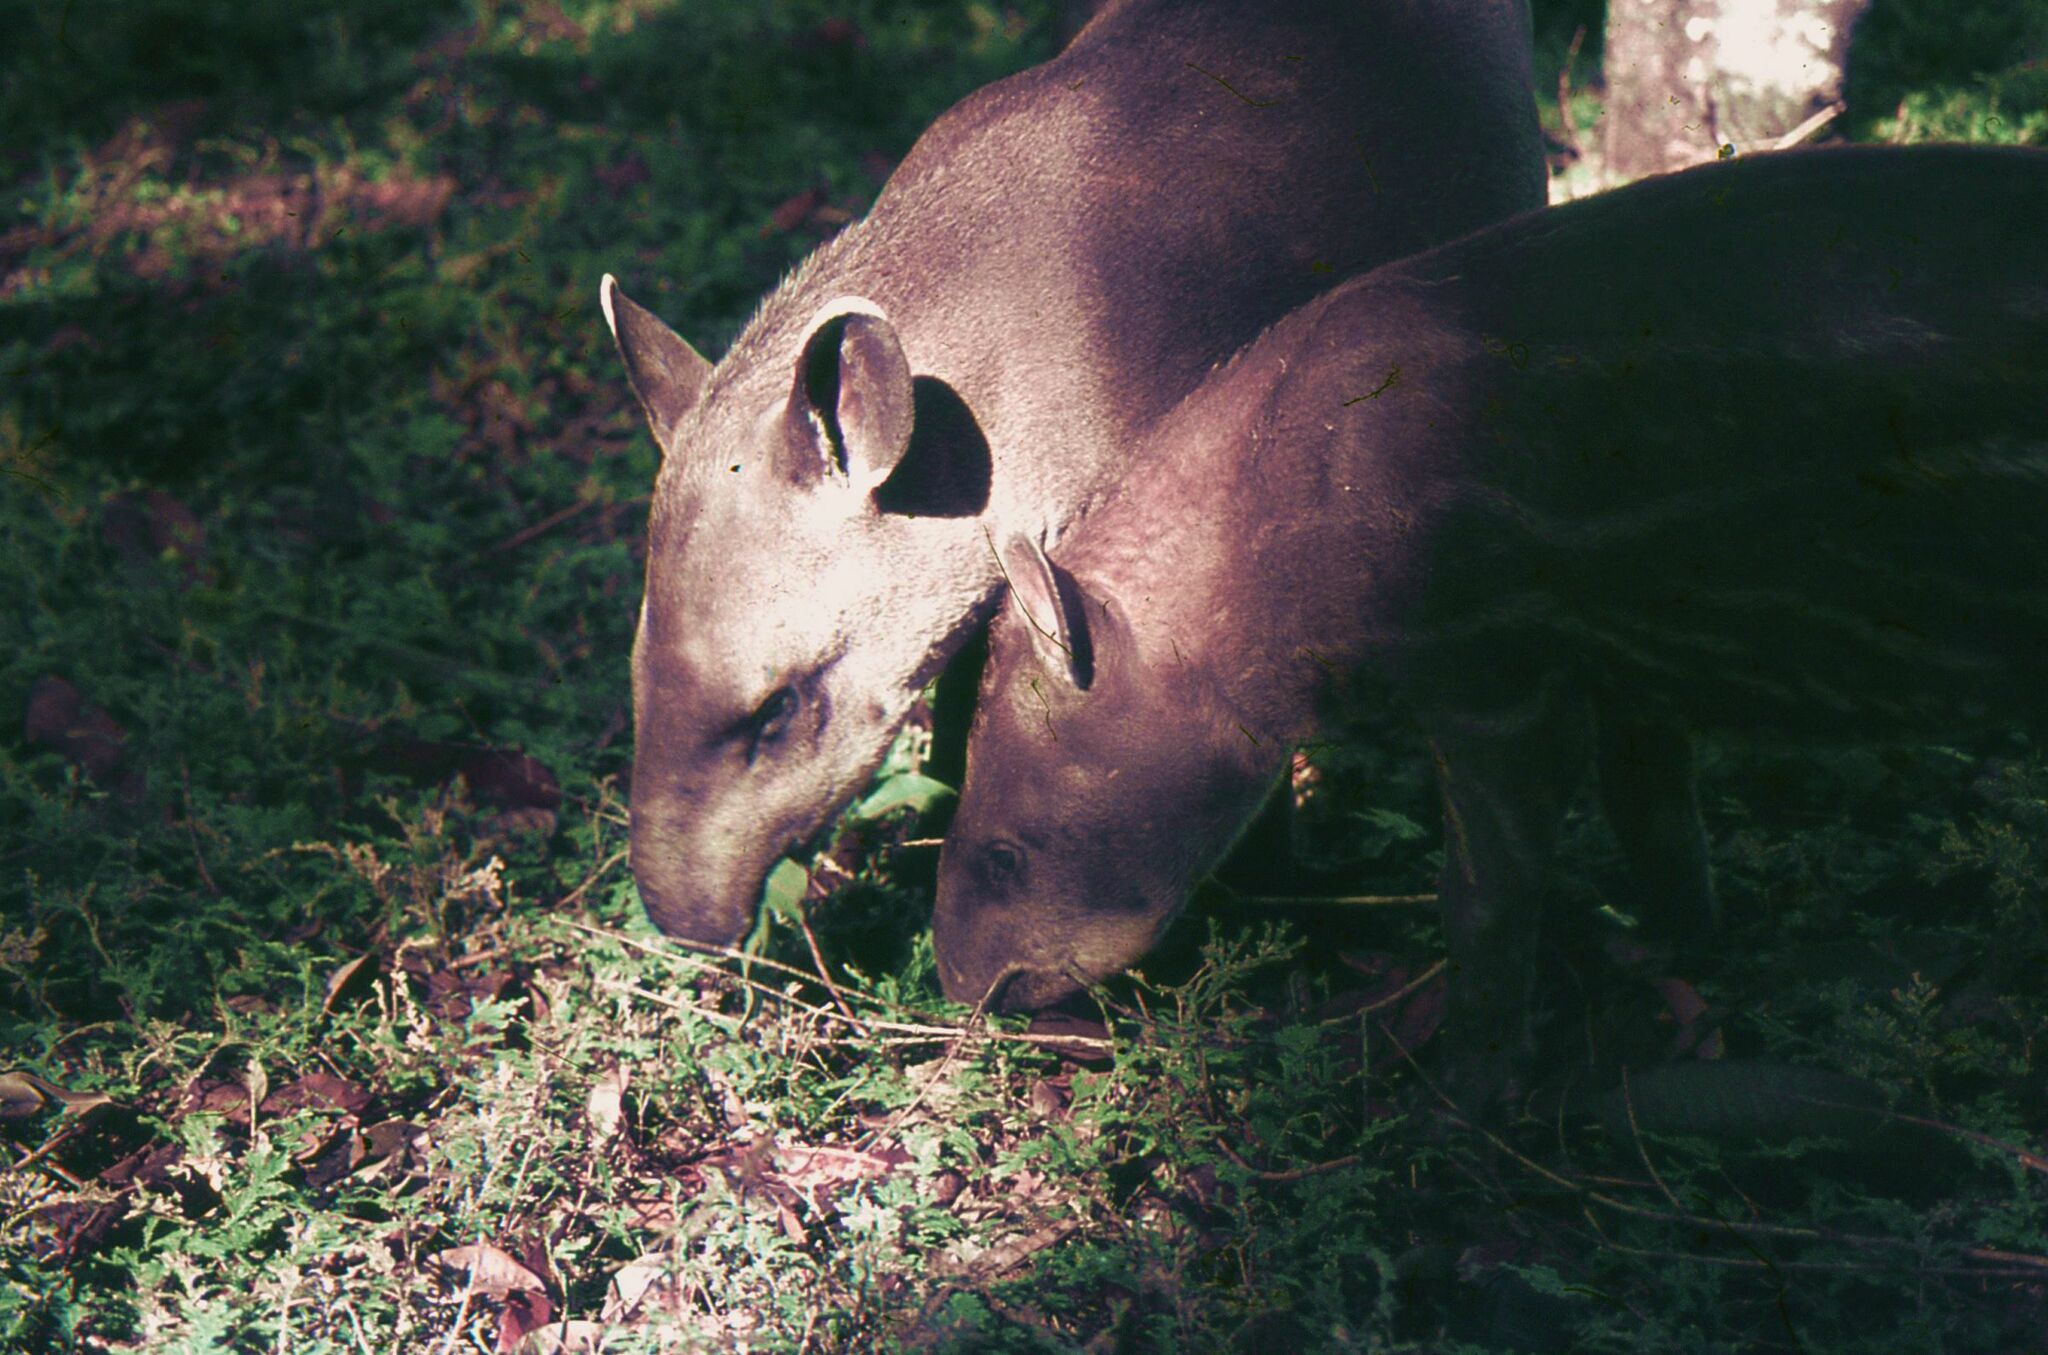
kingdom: Animalia
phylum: Chordata
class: Mammalia
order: Perissodactyla
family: Tapiridae
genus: Tapirus
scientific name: Tapirus terrestris
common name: Brazilian tapir
